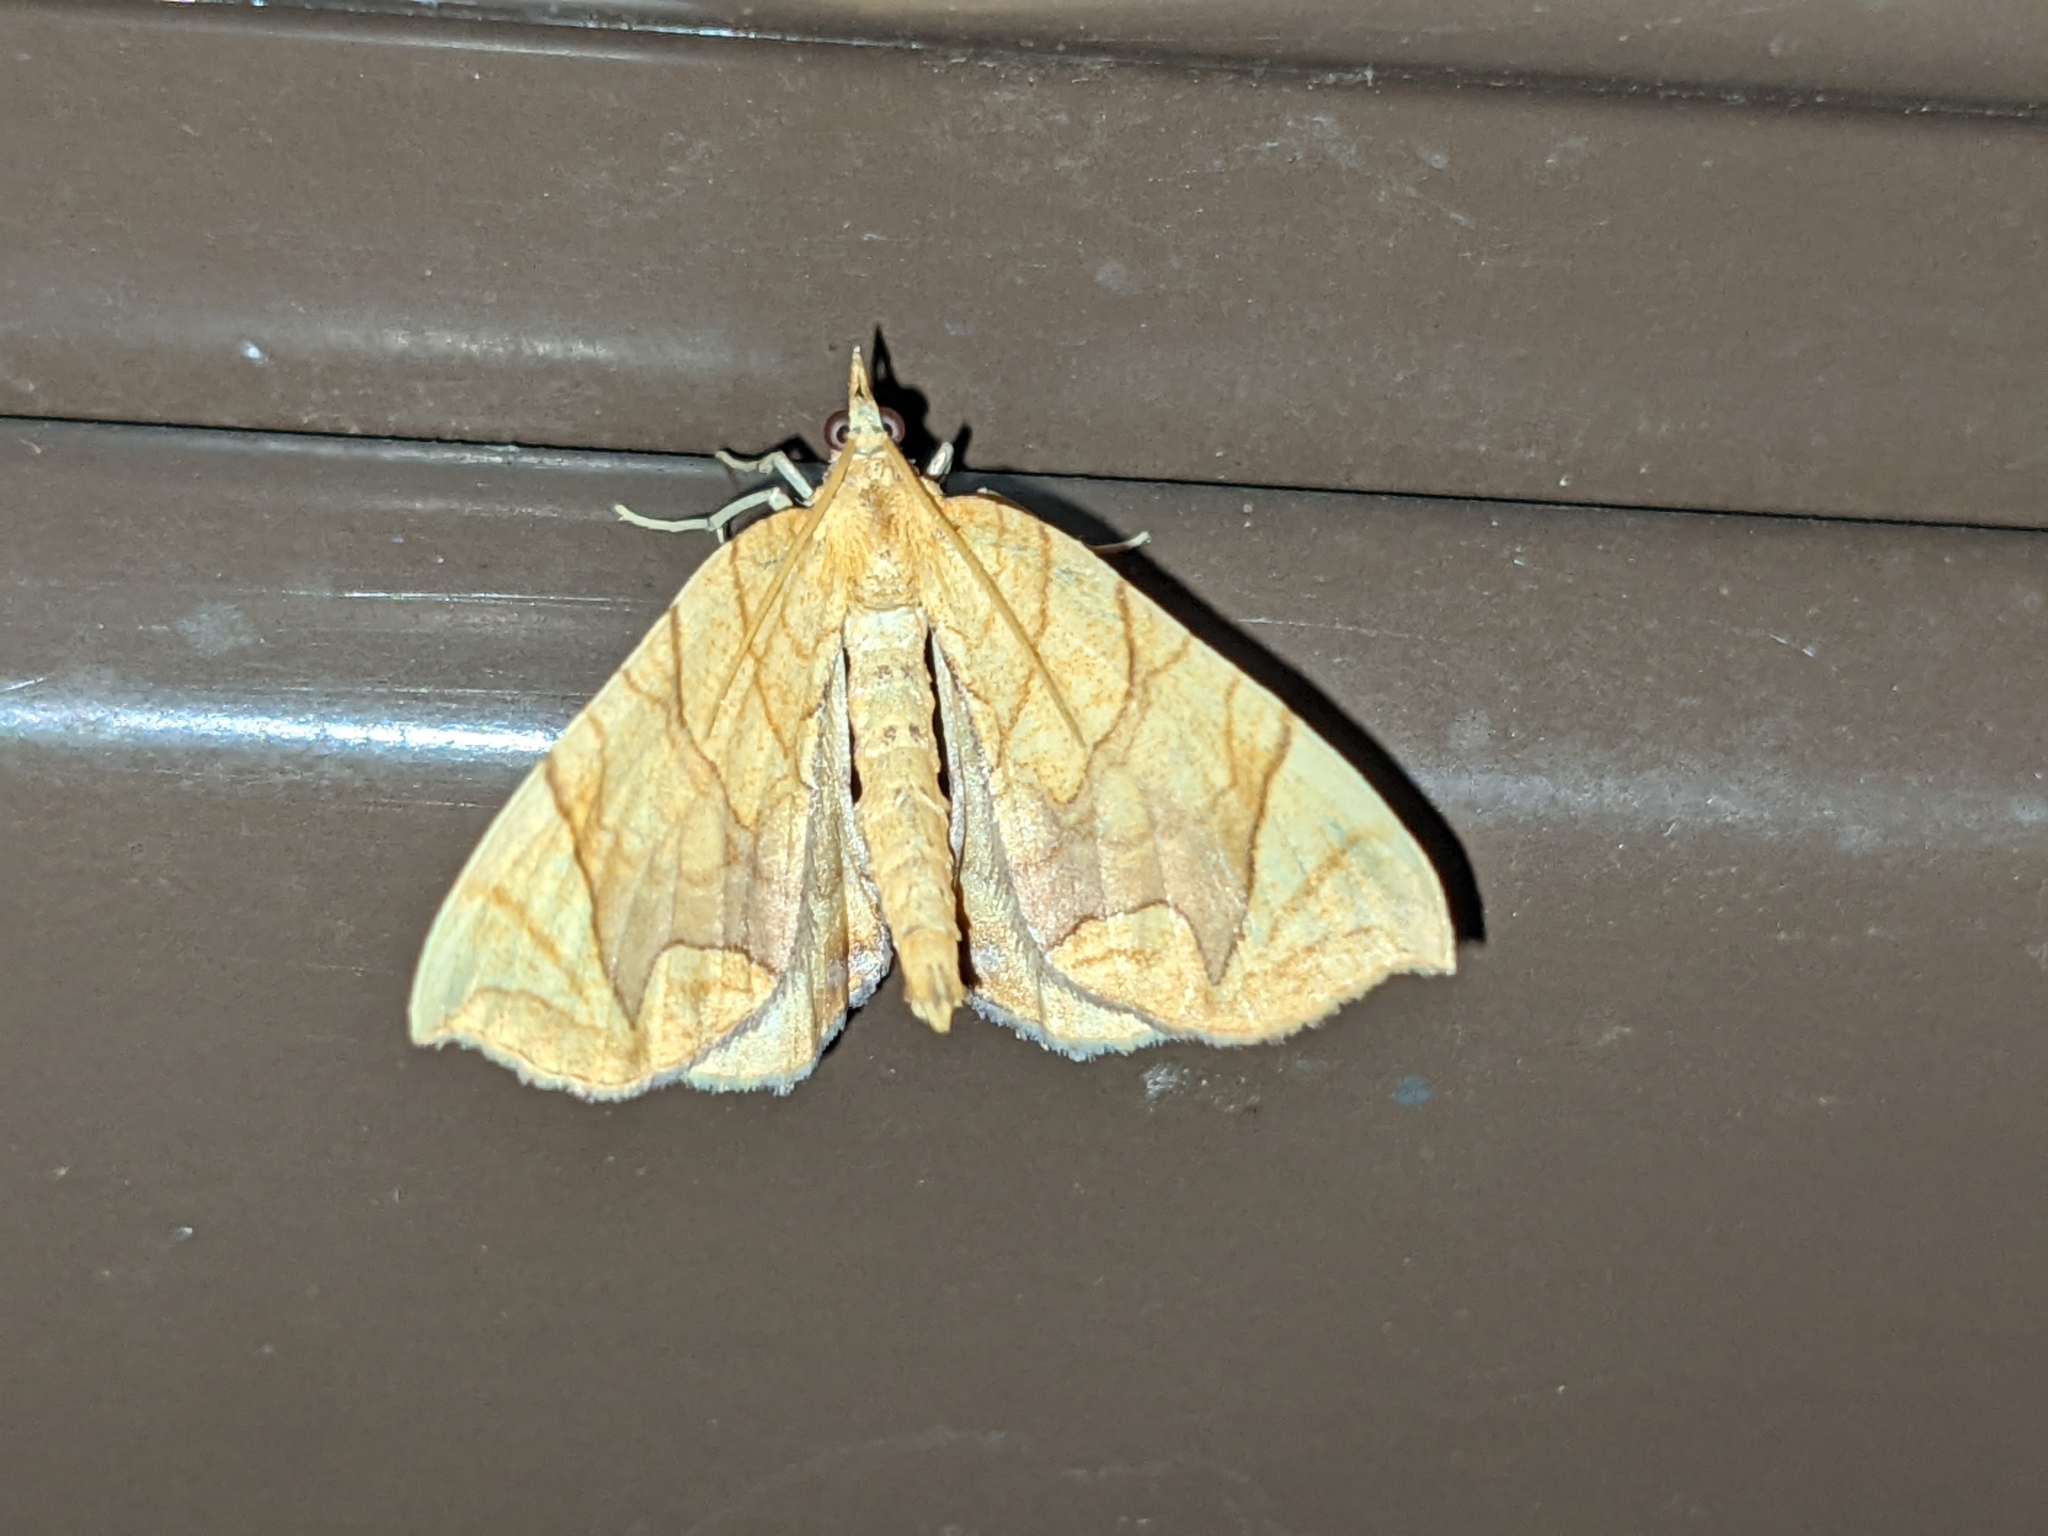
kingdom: Animalia
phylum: Arthropoda
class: Insecta
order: Lepidoptera
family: Geometridae
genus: Eulithis
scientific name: Eulithis
